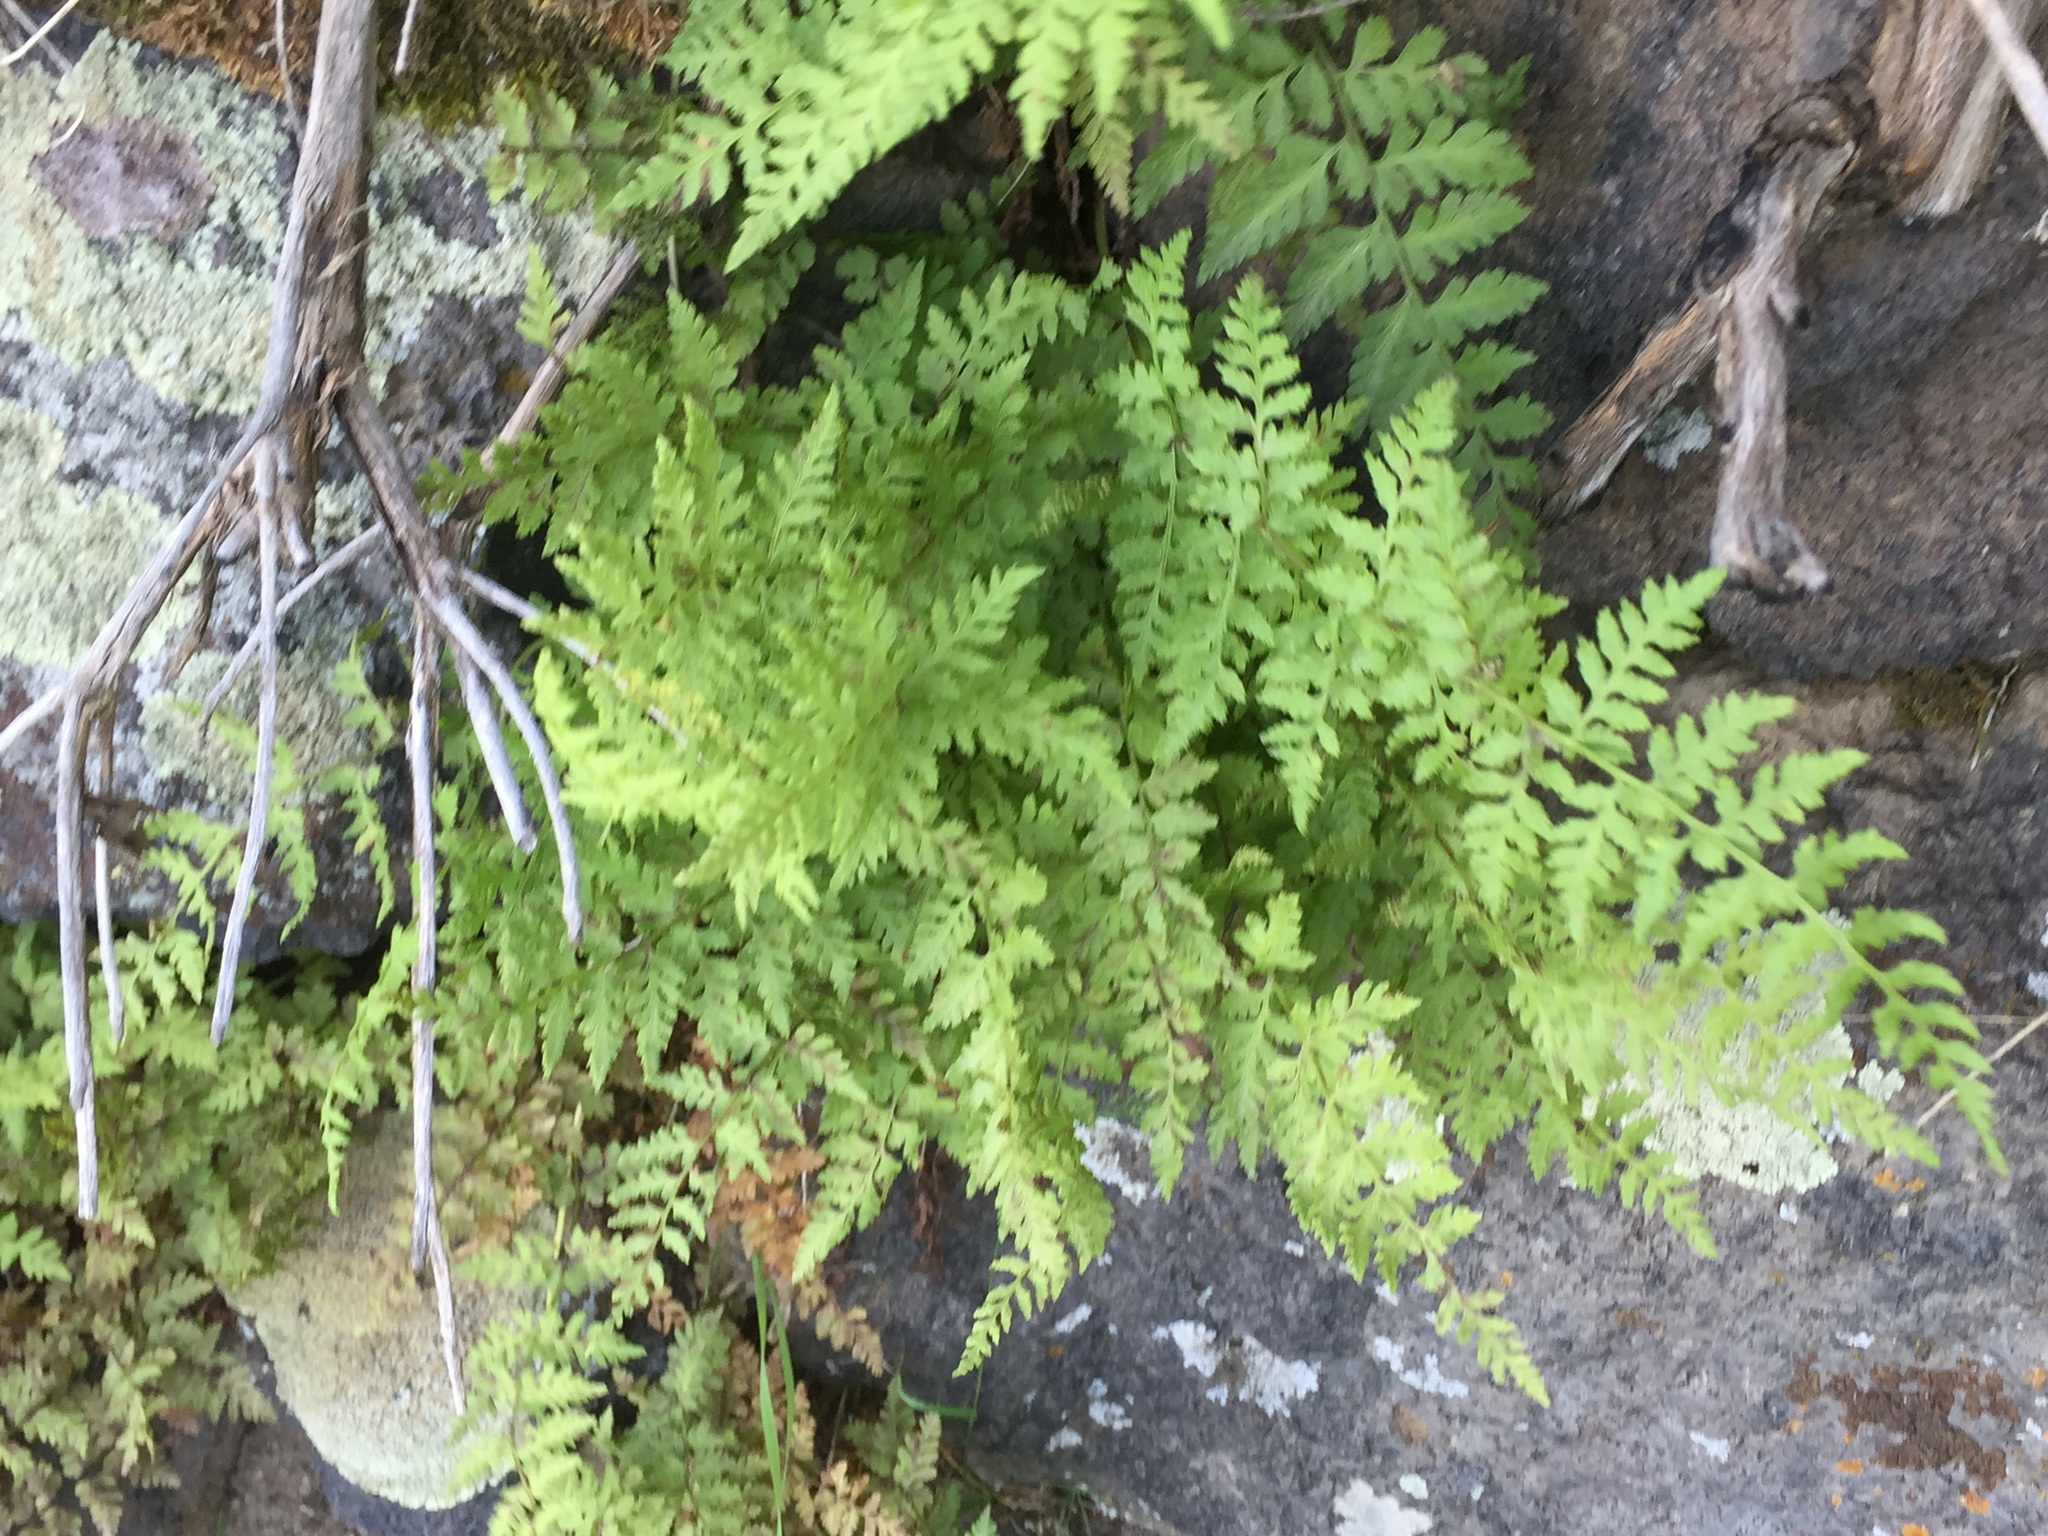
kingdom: Plantae
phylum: Tracheophyta
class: Polypodiopsida
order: Polypodiales
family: Cystopteridaceae
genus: Cystopteris
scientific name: Cystopteris fragilis
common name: Brittle bladder fern
